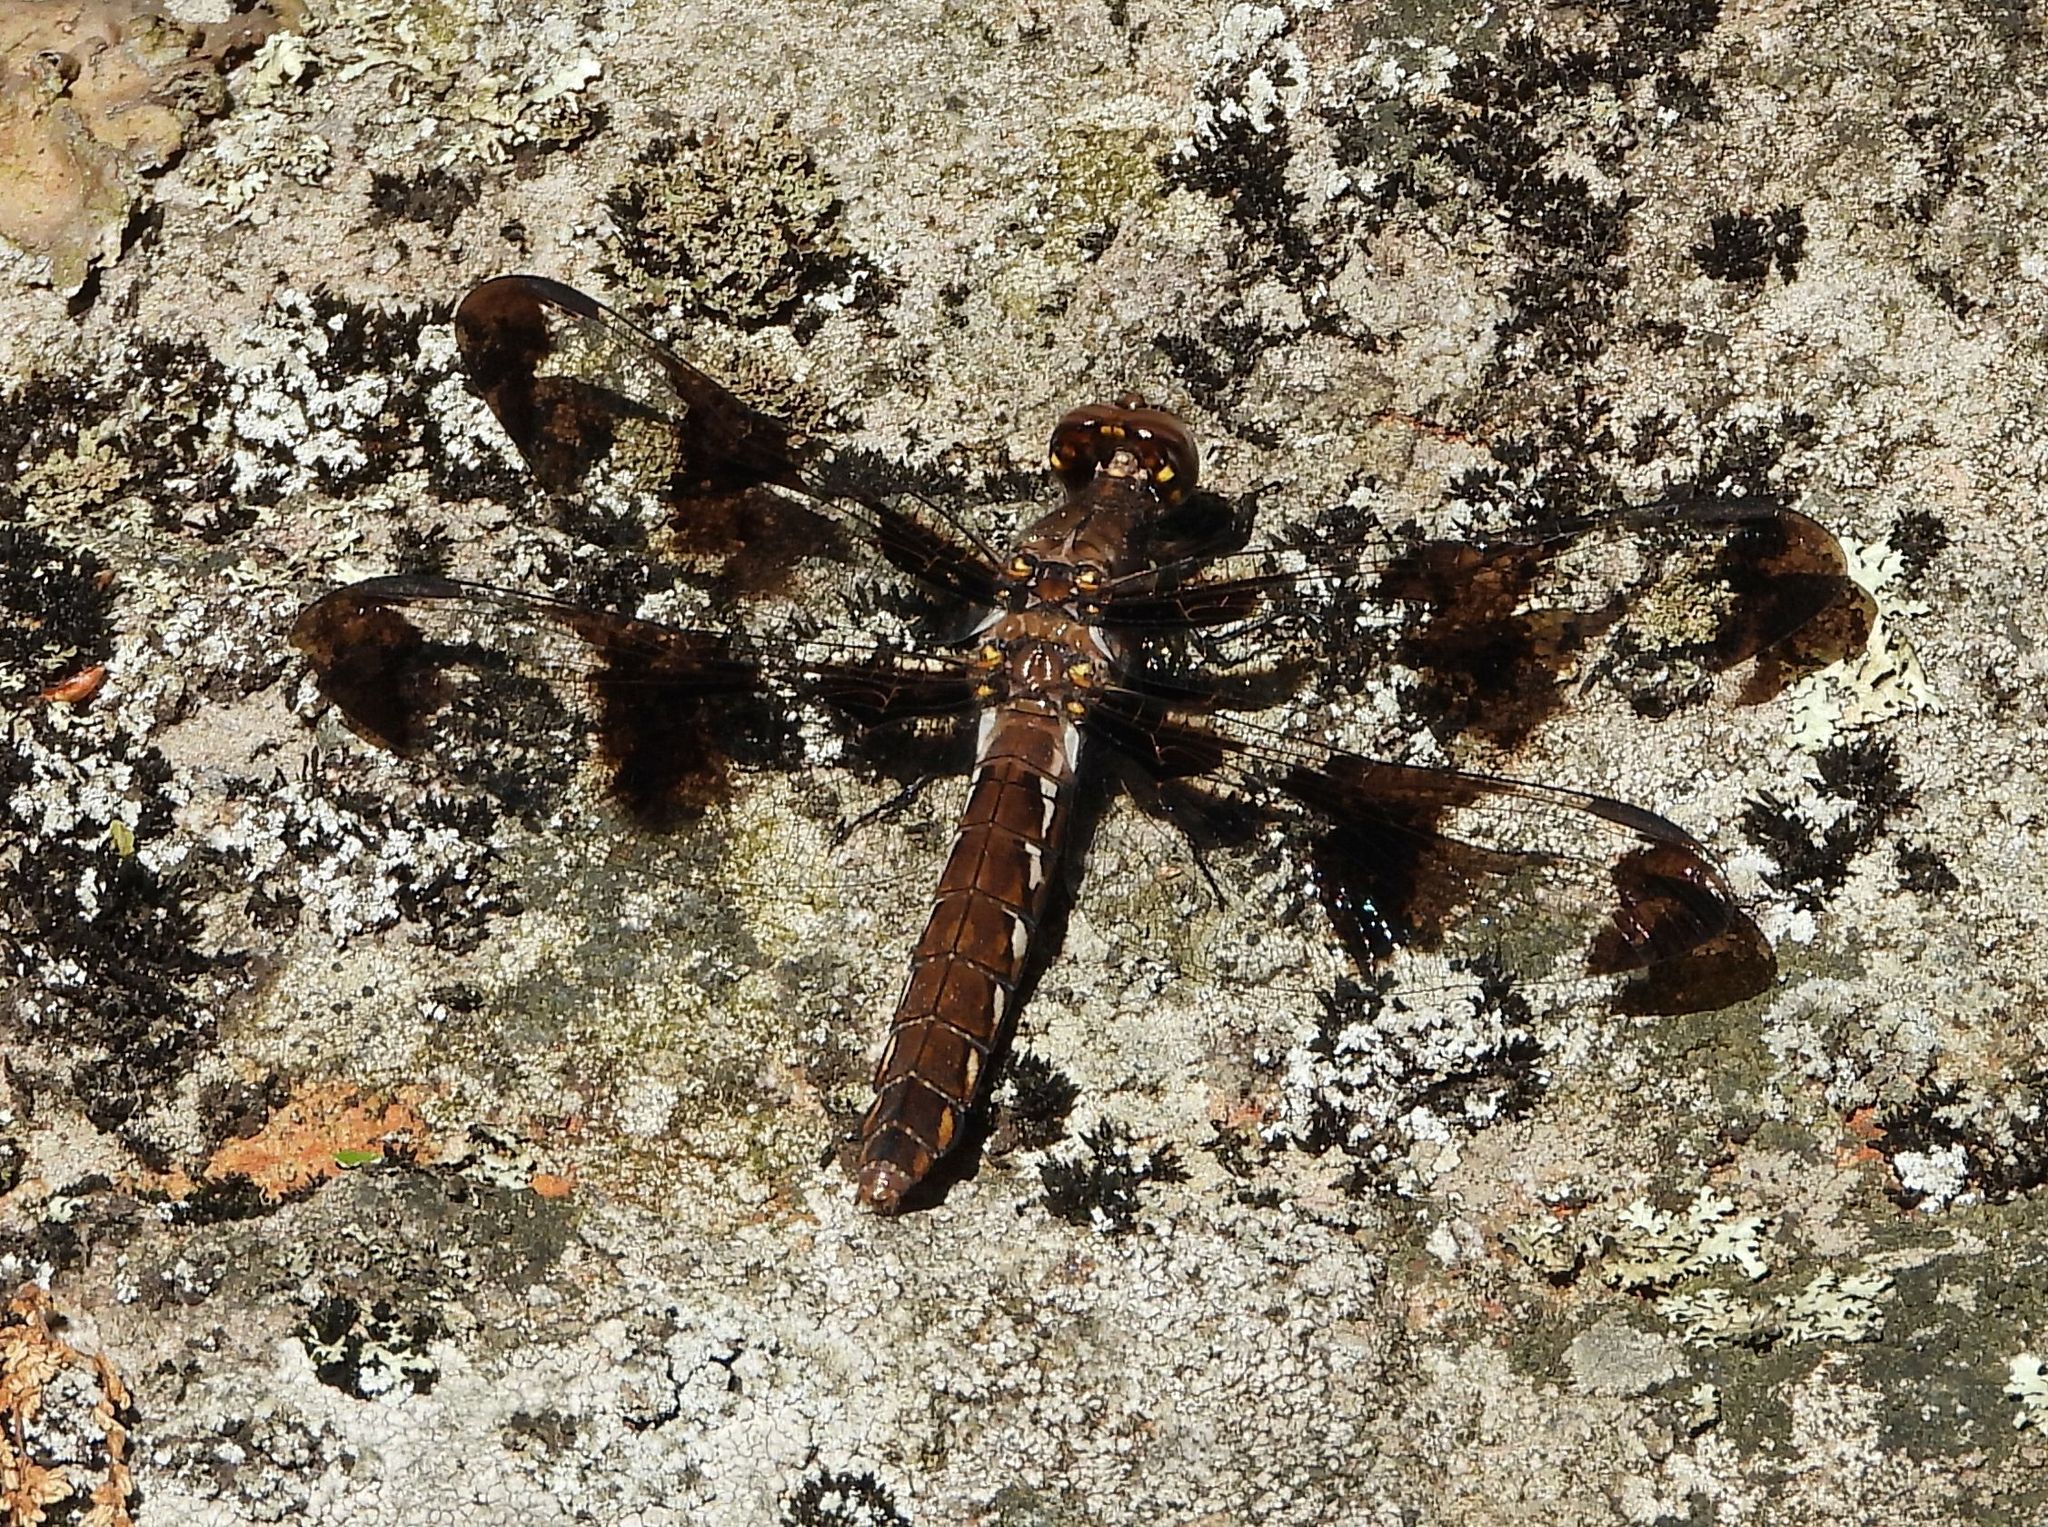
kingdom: Animalia
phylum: Arthropoda
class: Insecta
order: Odonata
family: Libellulidae
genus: Plathemis
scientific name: Plathemis lydia
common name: Common whitetail
